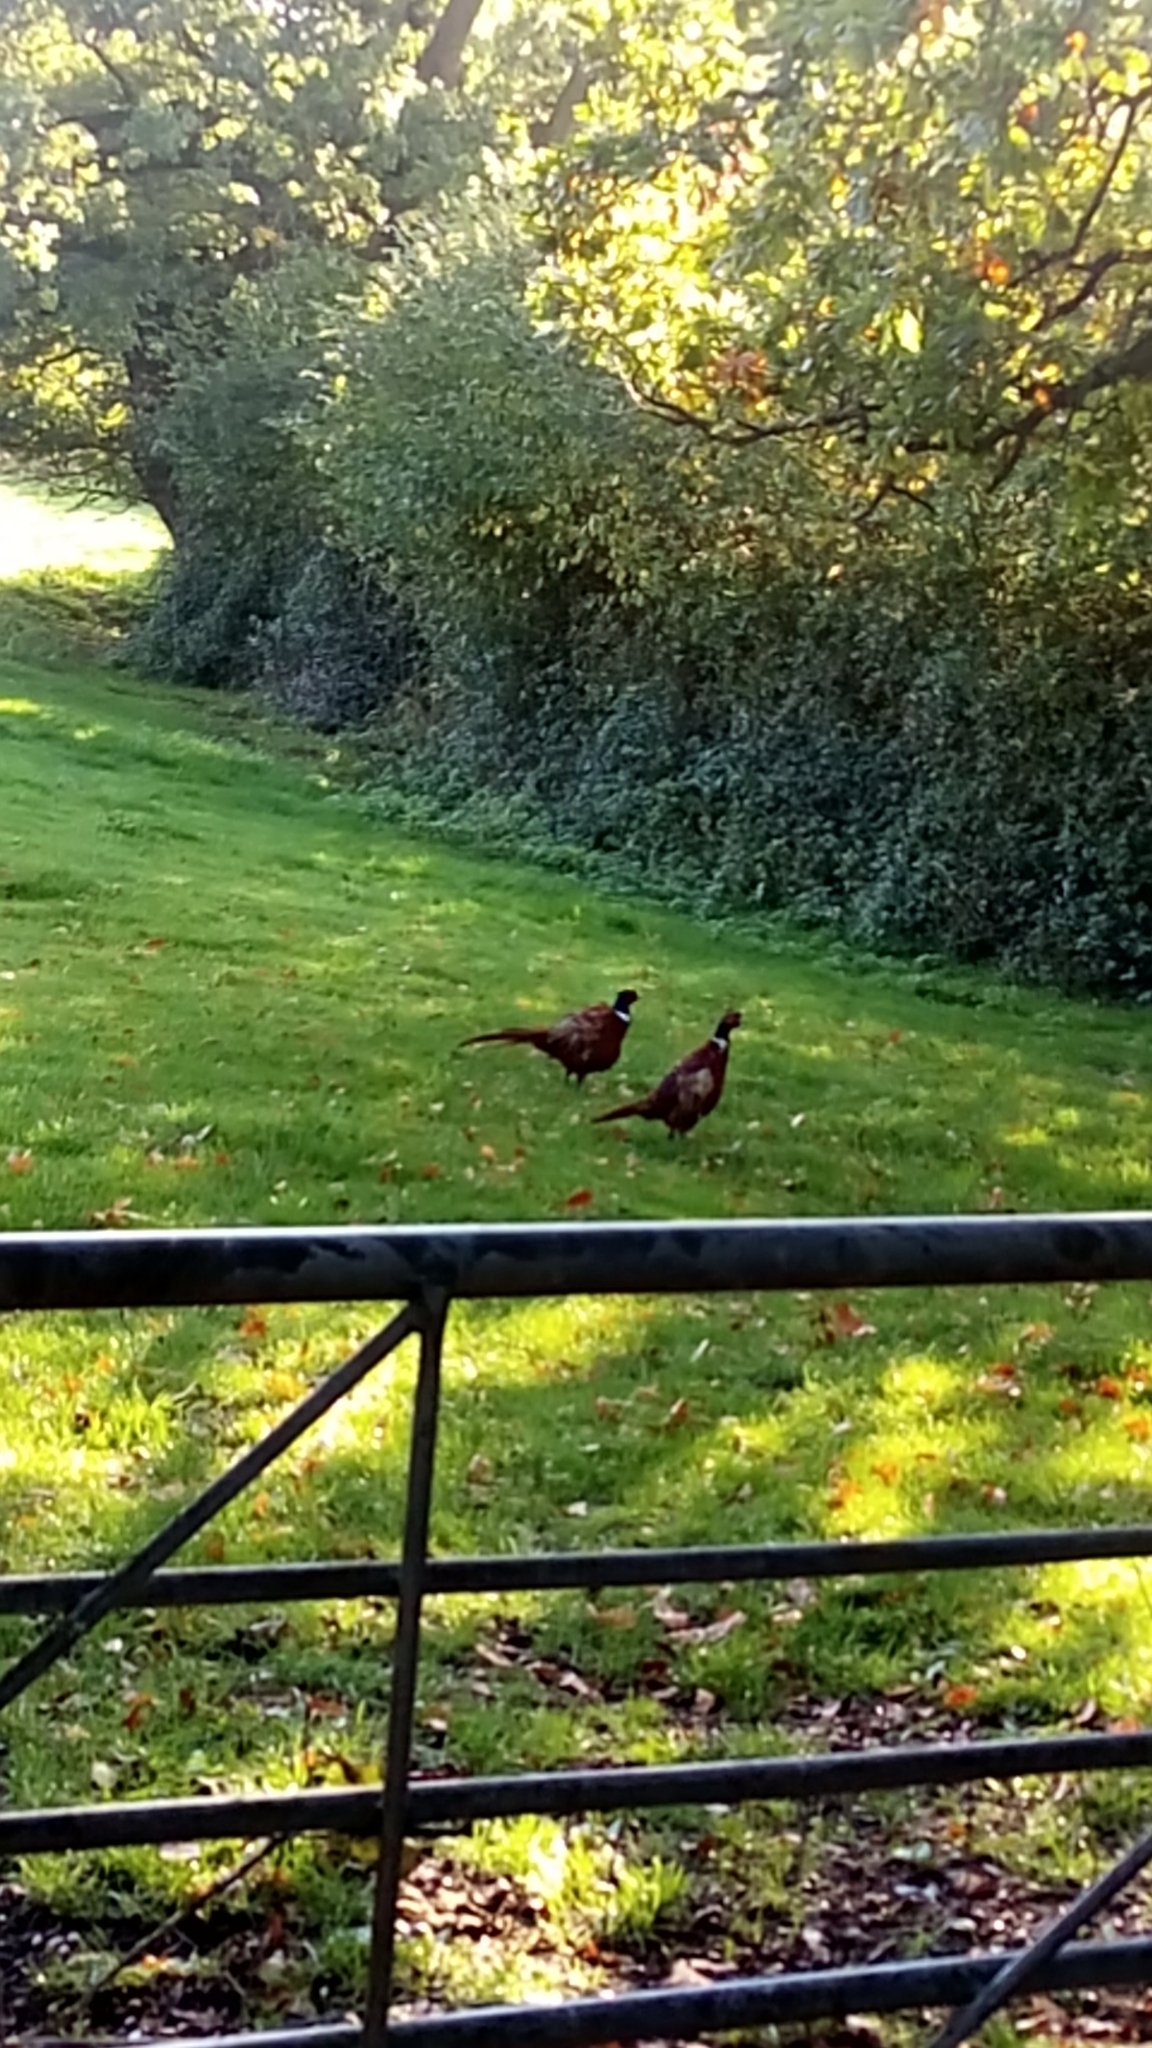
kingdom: Animalia
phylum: Chordata
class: Aves
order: Galliformes
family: Phasianidae
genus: Phasianus
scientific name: Phasianus colchicus
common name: Common pheasant
